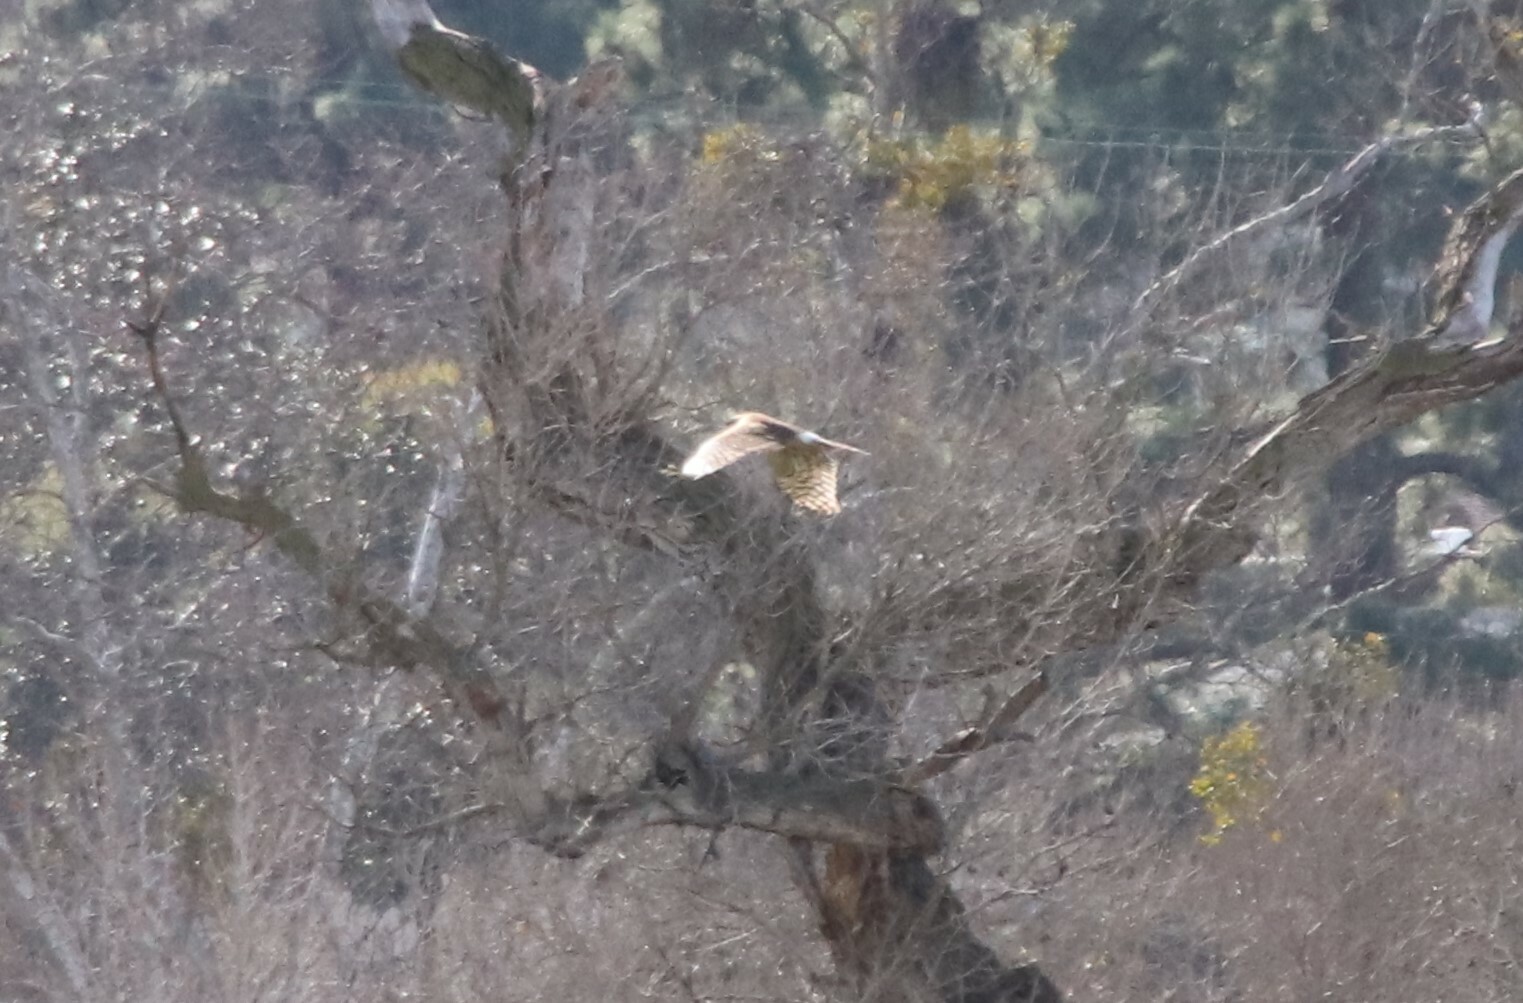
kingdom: Animalia
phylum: Chordata
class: Aves
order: Accipitriformes
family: Accipitridae
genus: Circus
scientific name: Circus cyaneus
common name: Hen harrier
